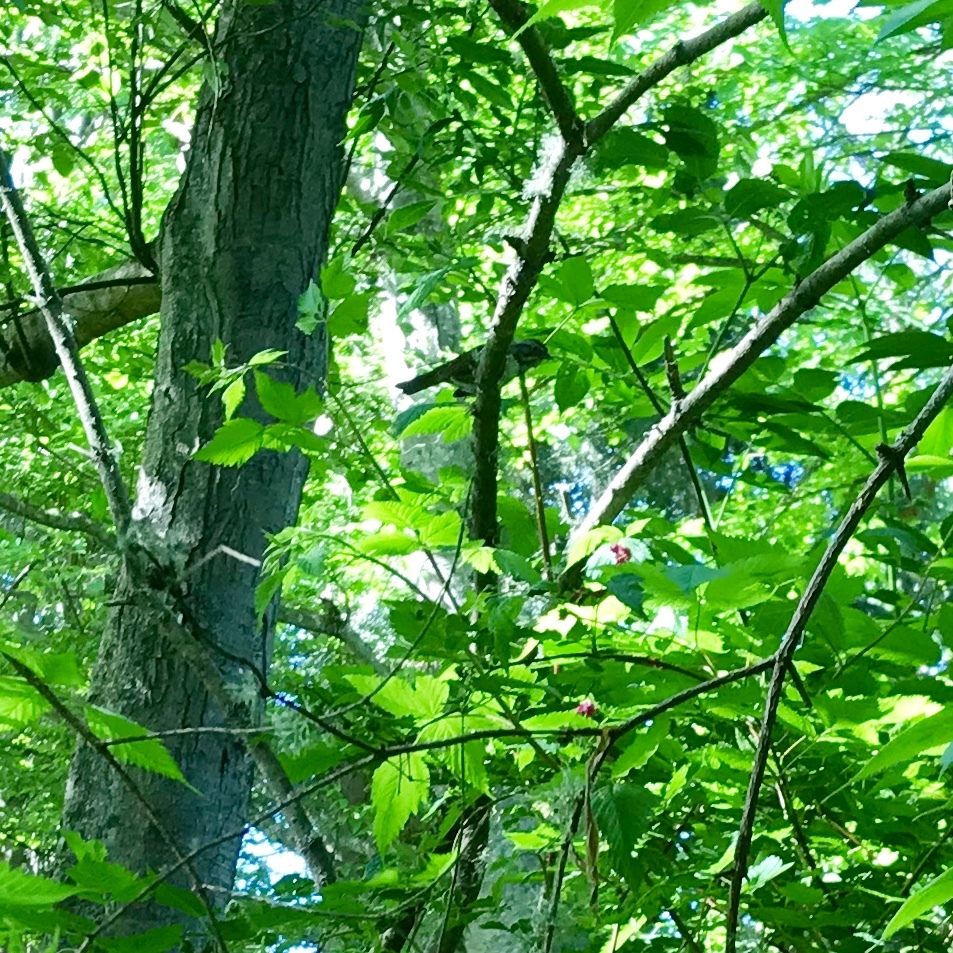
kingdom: Animalia
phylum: Chordata
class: Aves
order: Passeriformes
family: Passerellidae
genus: Melospiza
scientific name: Melospiza melodia
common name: Song sparrow
